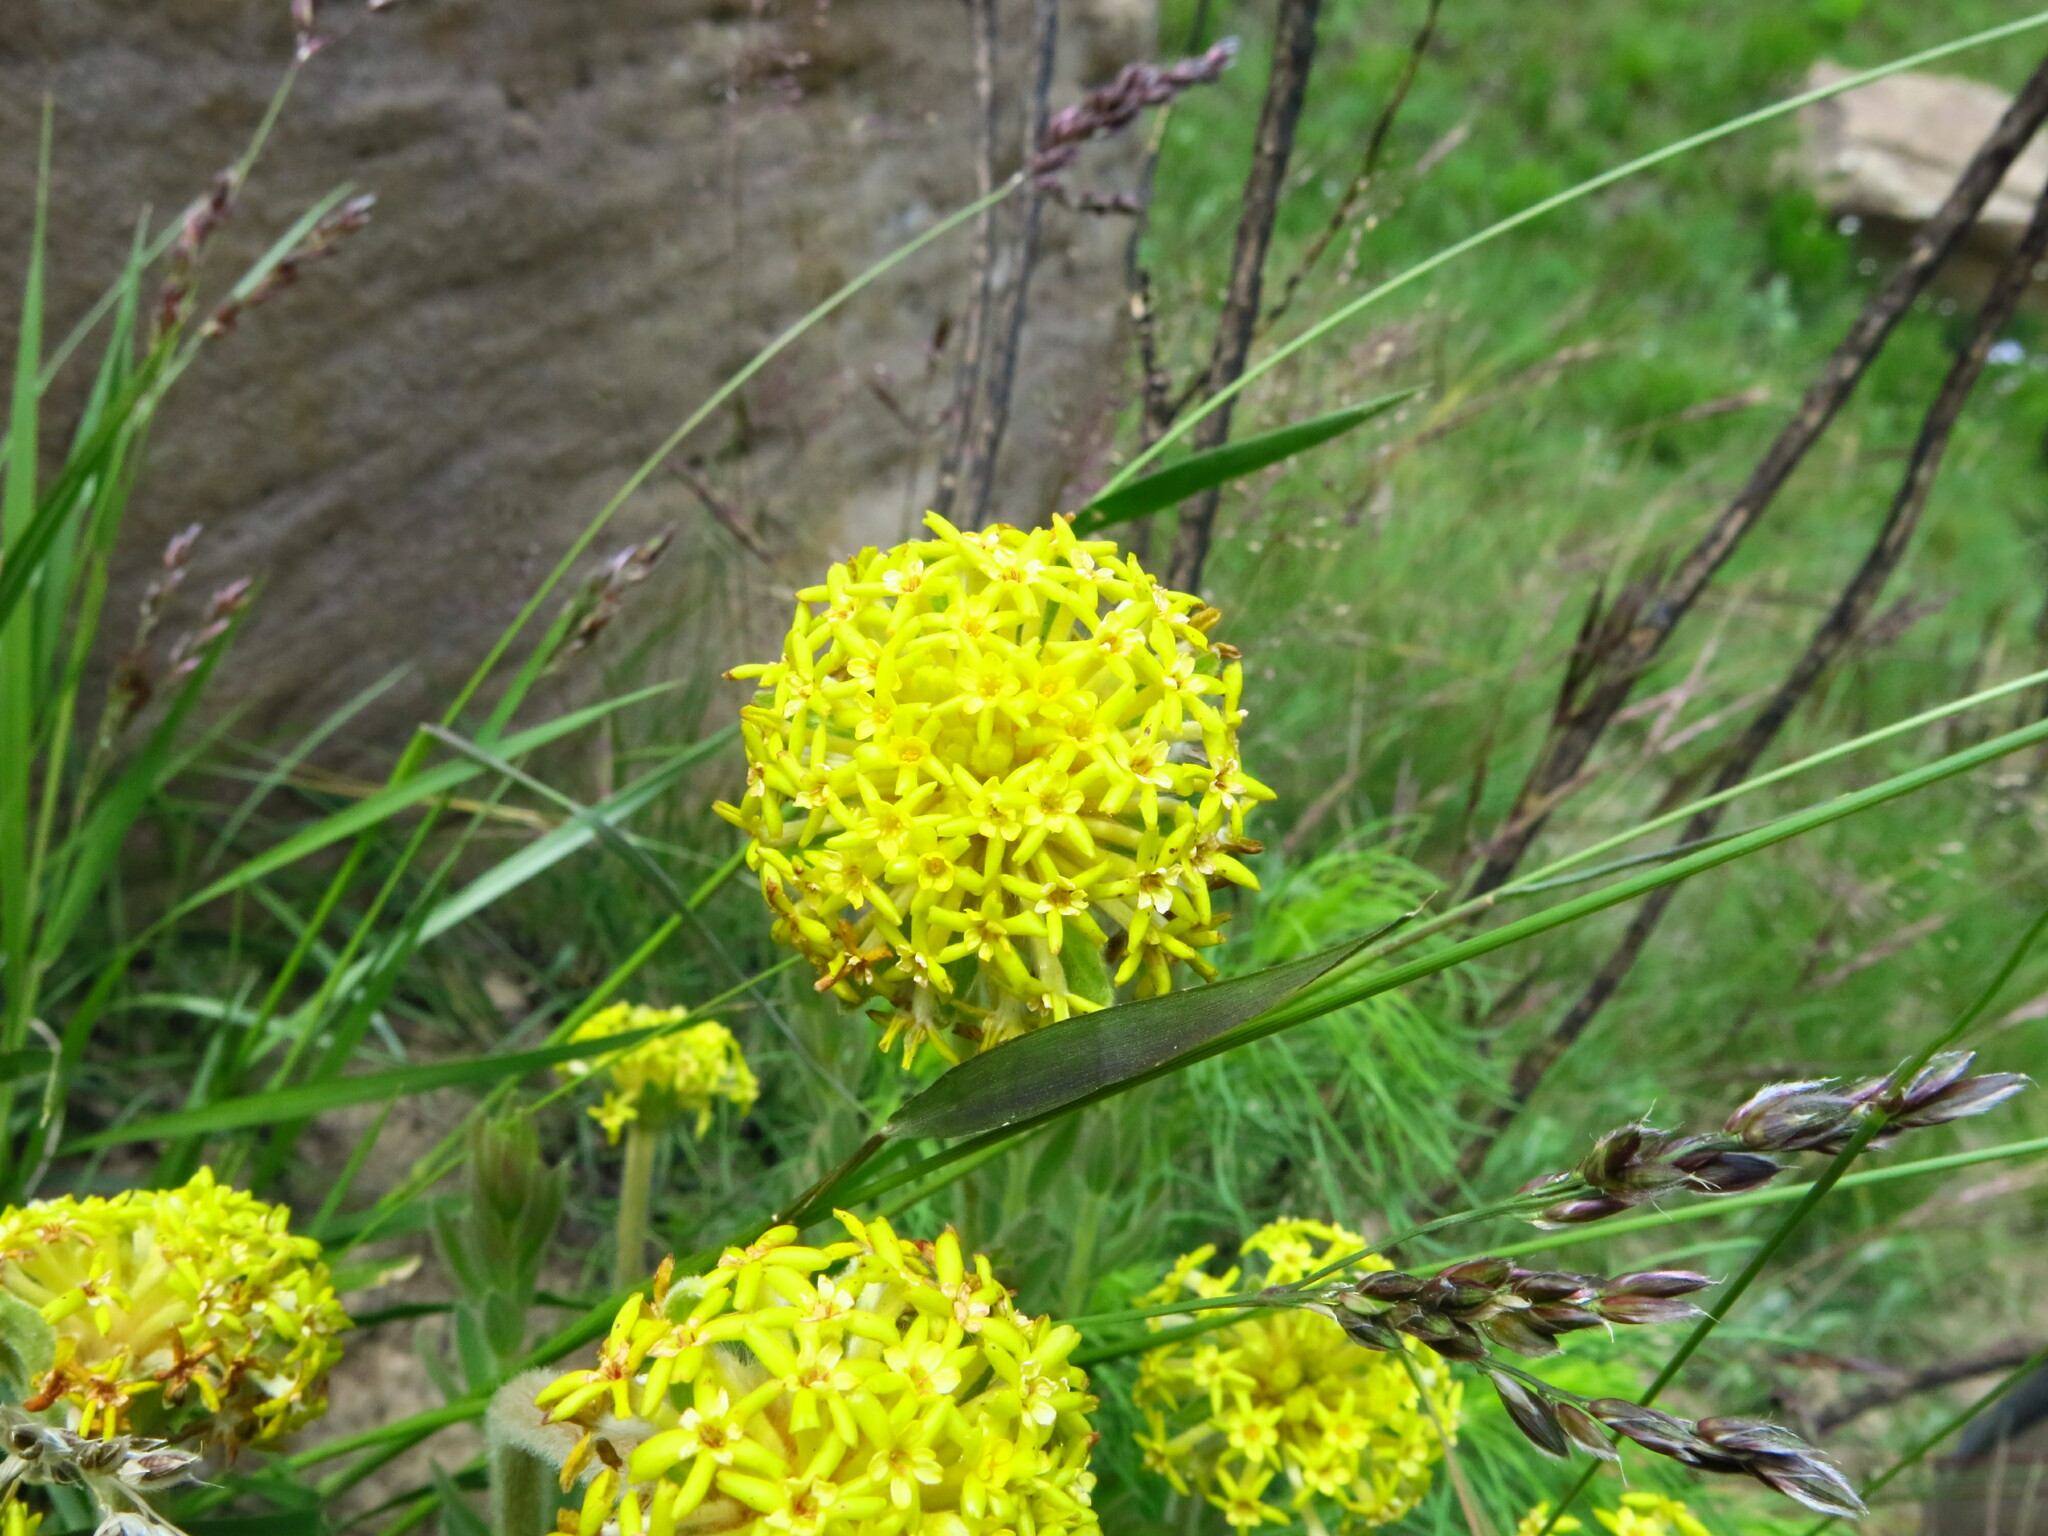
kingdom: Plantae
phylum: Tracheophyta
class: Magnoliopsida
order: Malvales
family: Thymelaeaceae
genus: Gnidia
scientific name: Gnidia kraussiana
